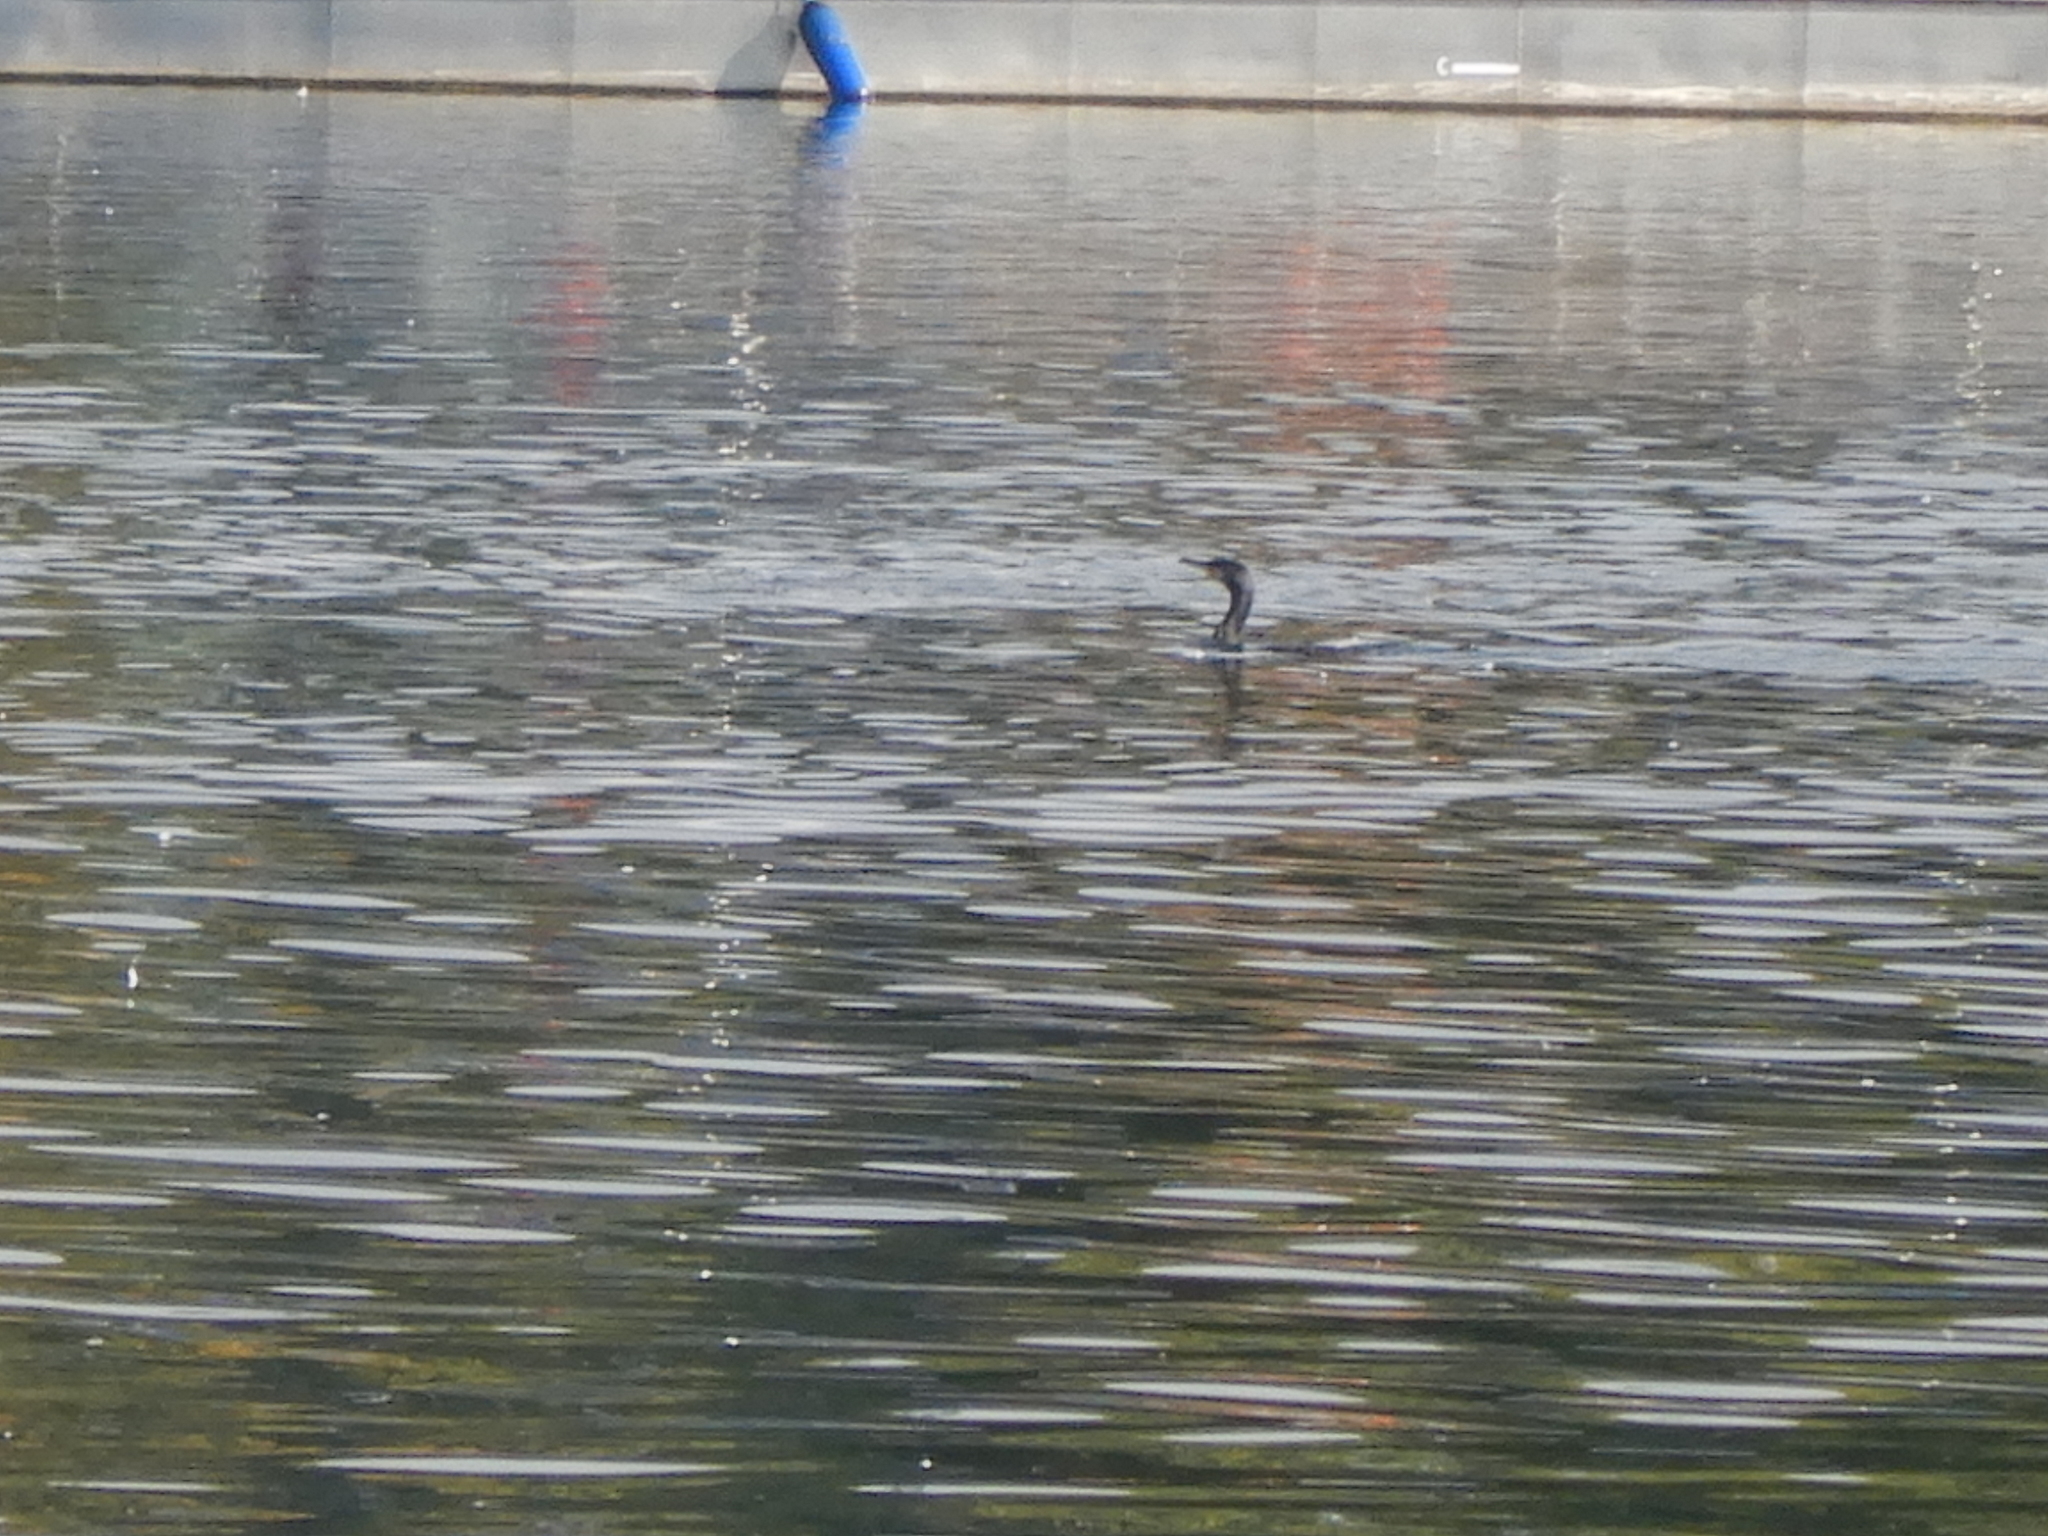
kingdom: Animalia
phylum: Chordata
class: Aves
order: Suliformes
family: Phalacrocoracidae
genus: Phalacrocorax
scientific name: Phalacrocorax carbo
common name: Great cormorant
